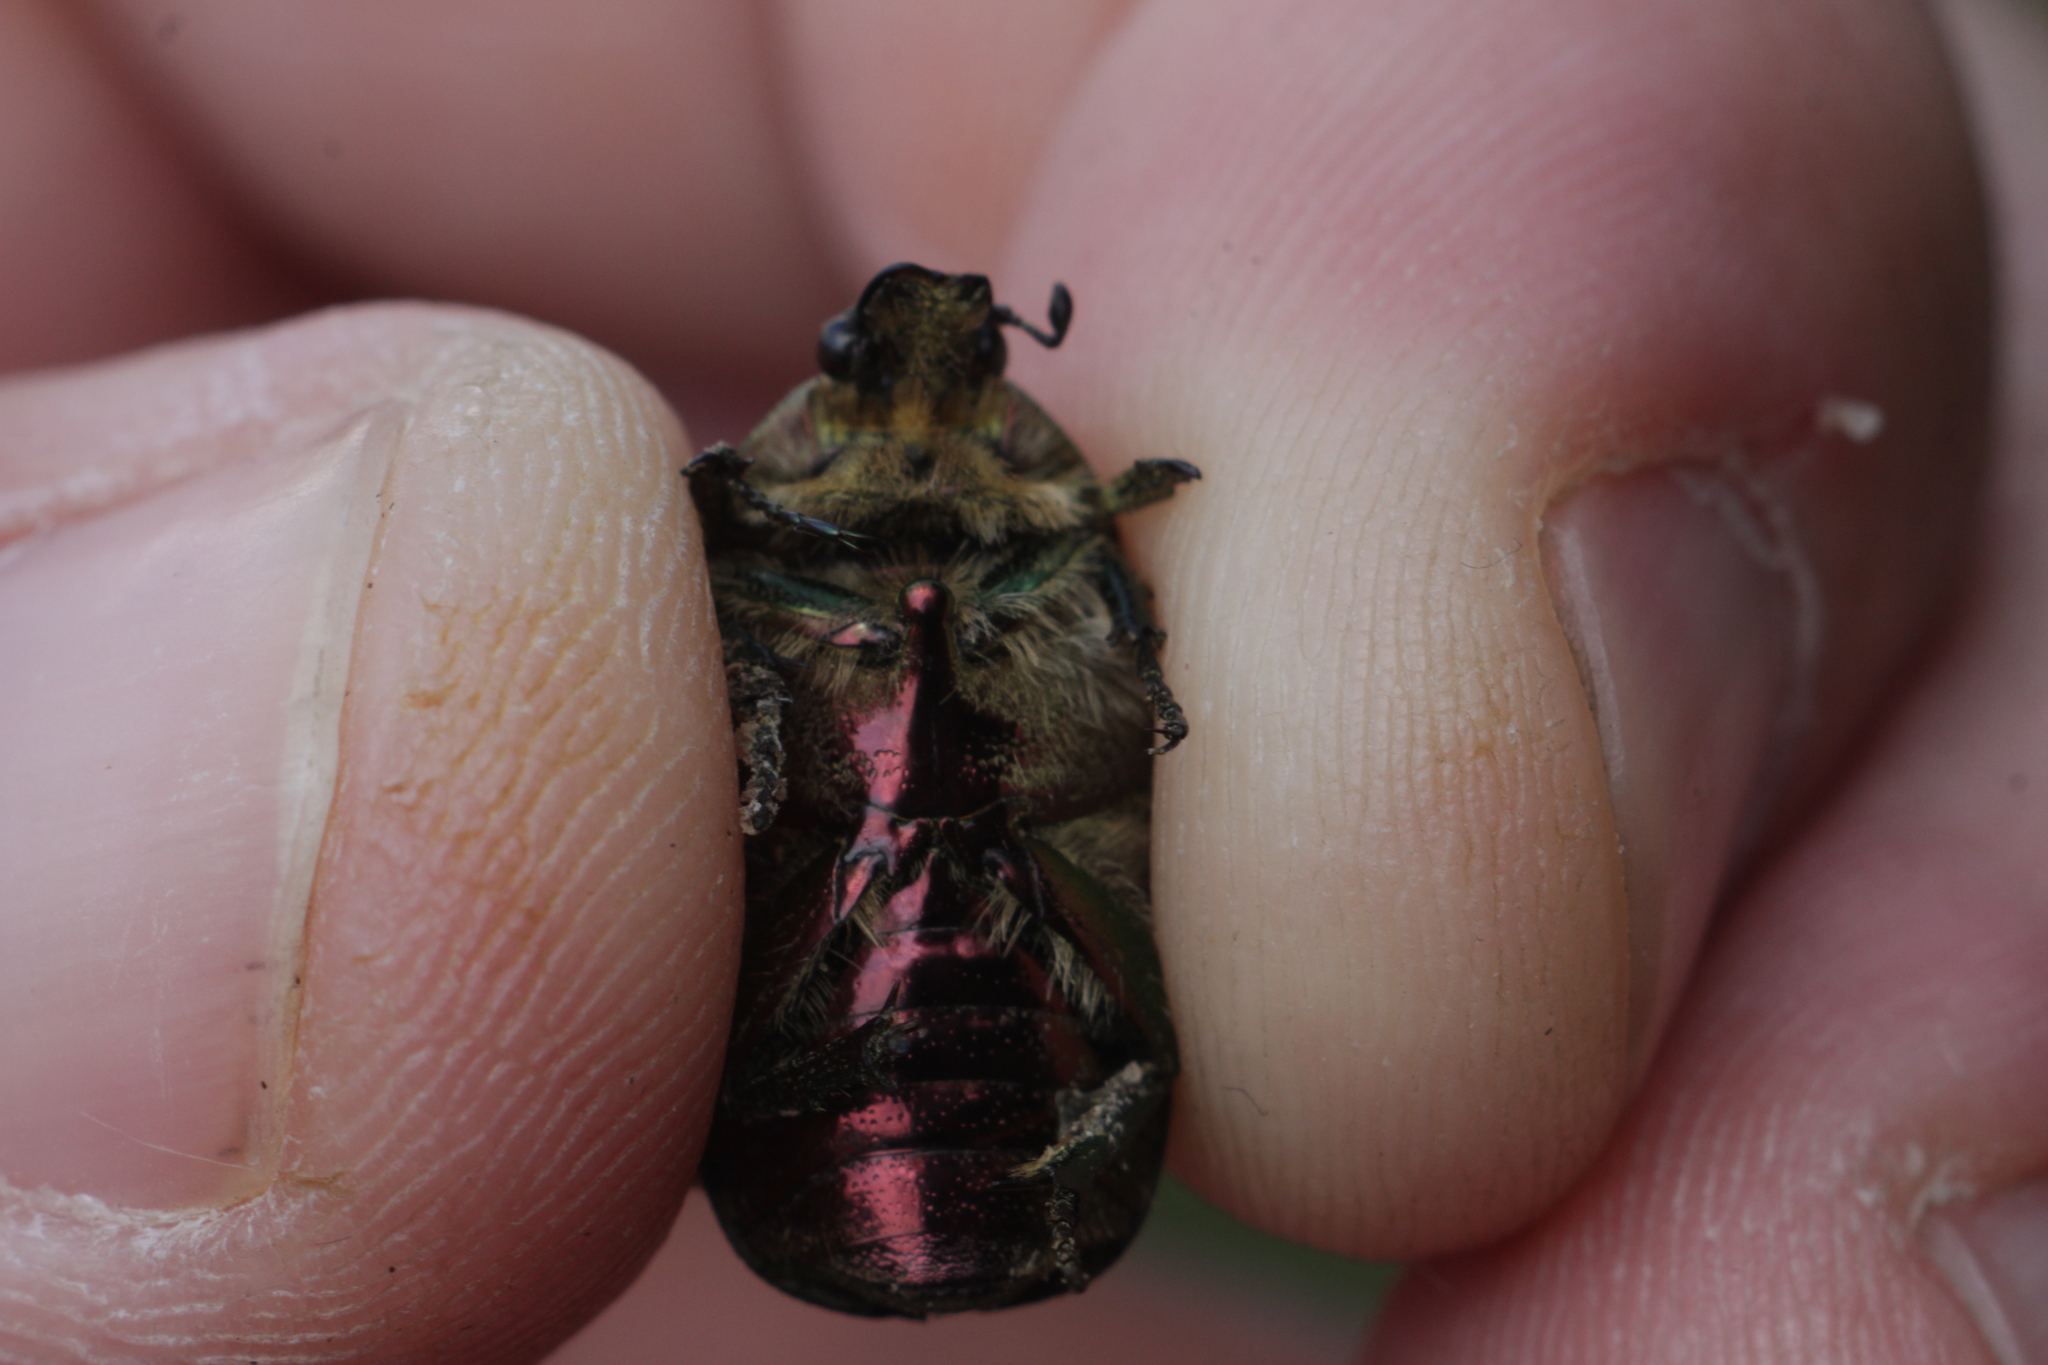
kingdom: Animalia
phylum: Arthropoda
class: Insecta
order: Coleoptera
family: Scarabaeidae
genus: Cetonia
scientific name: Cetonia aurata
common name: Rose chafer
